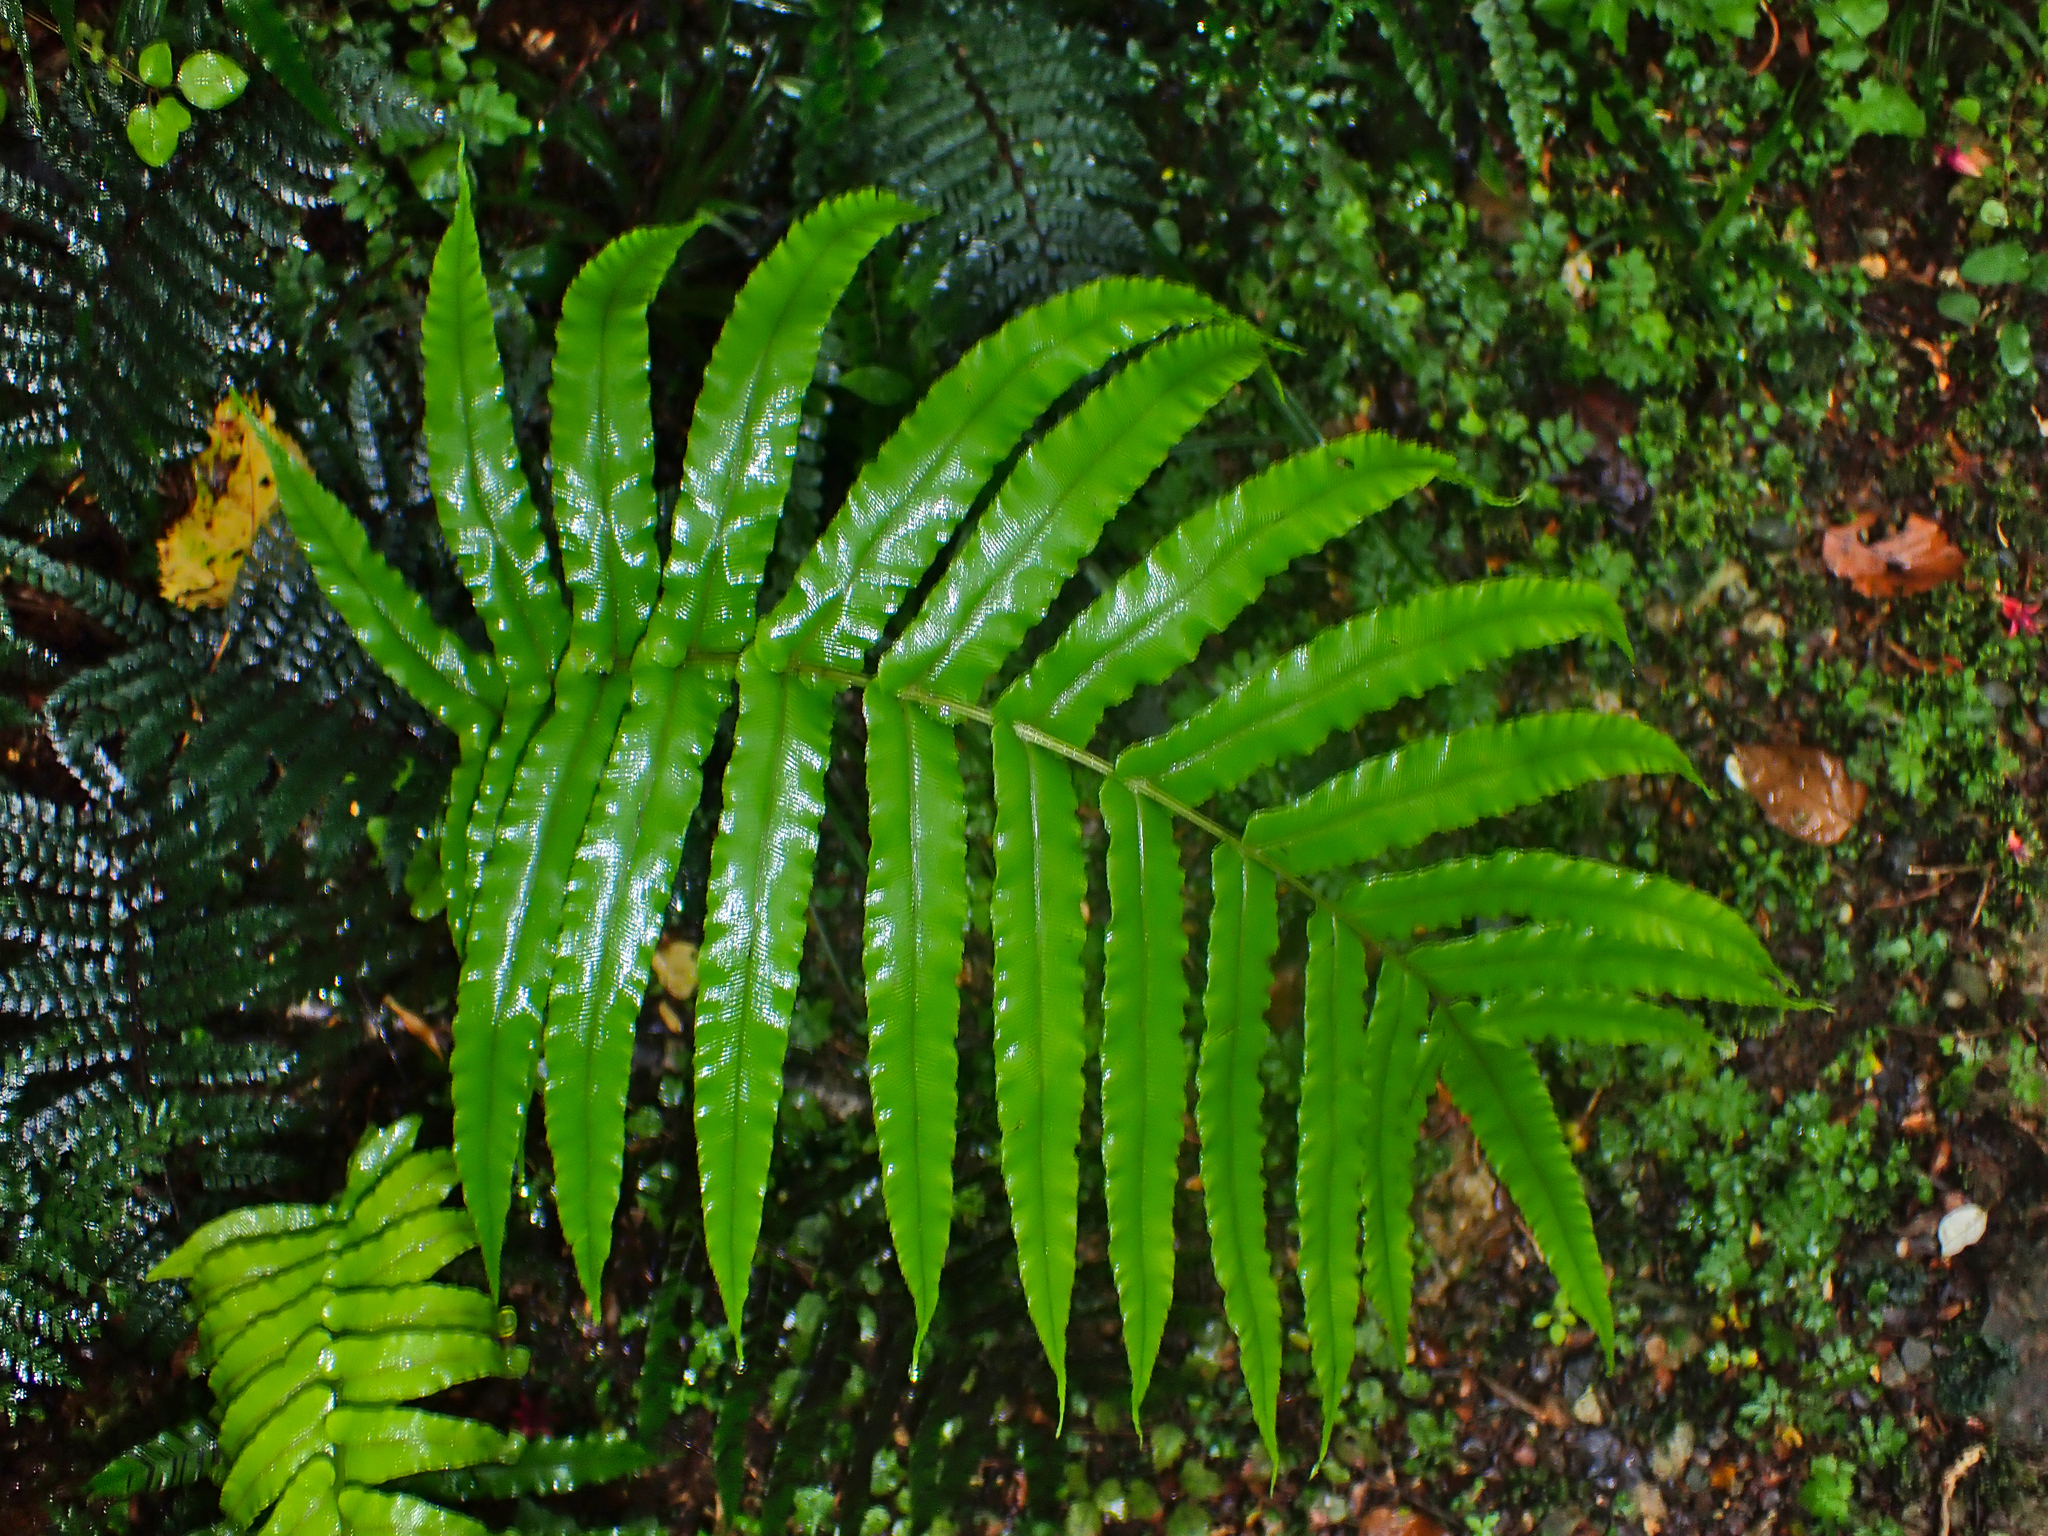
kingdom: Plantae
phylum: Tracheophyta
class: Polypodiopsida
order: Polypodiales
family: Blechnaceae
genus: Parablechnum
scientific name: Parablechnum novae-zelandiae
